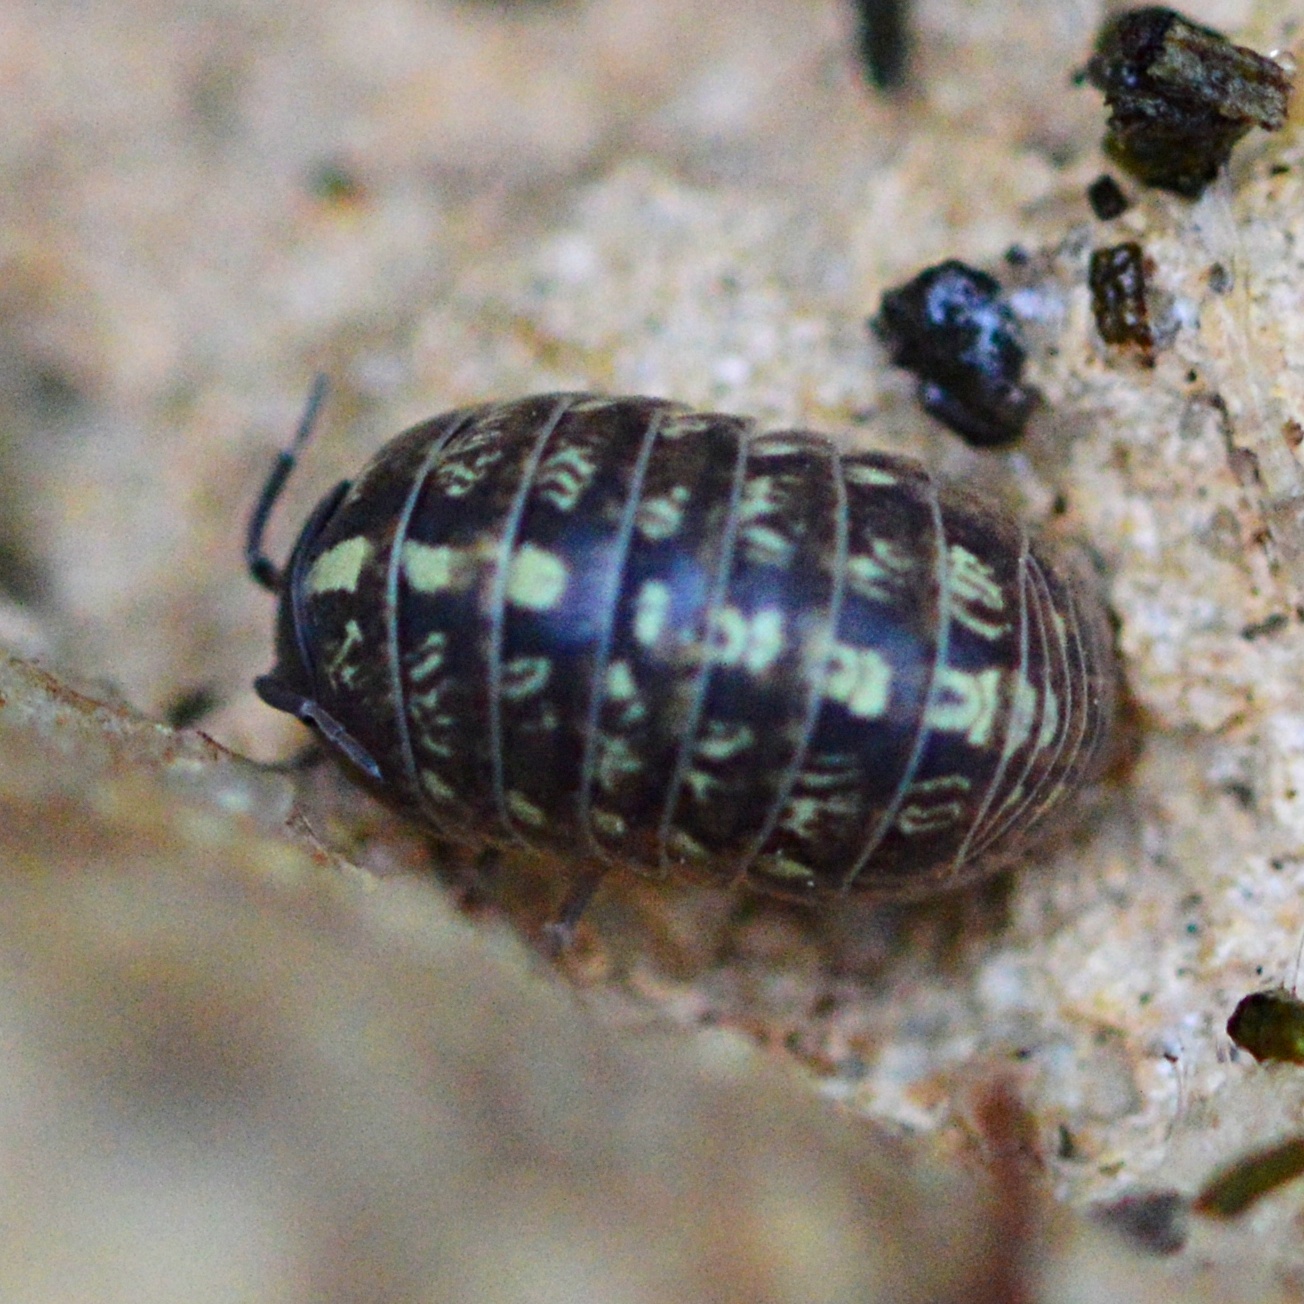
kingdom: Animalia
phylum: Arthropoda
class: Malacostraca
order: Isopoda
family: Armadillidiidae
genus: Armadillidium
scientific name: Armadillidium vulgare
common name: Common pill woodlouse
